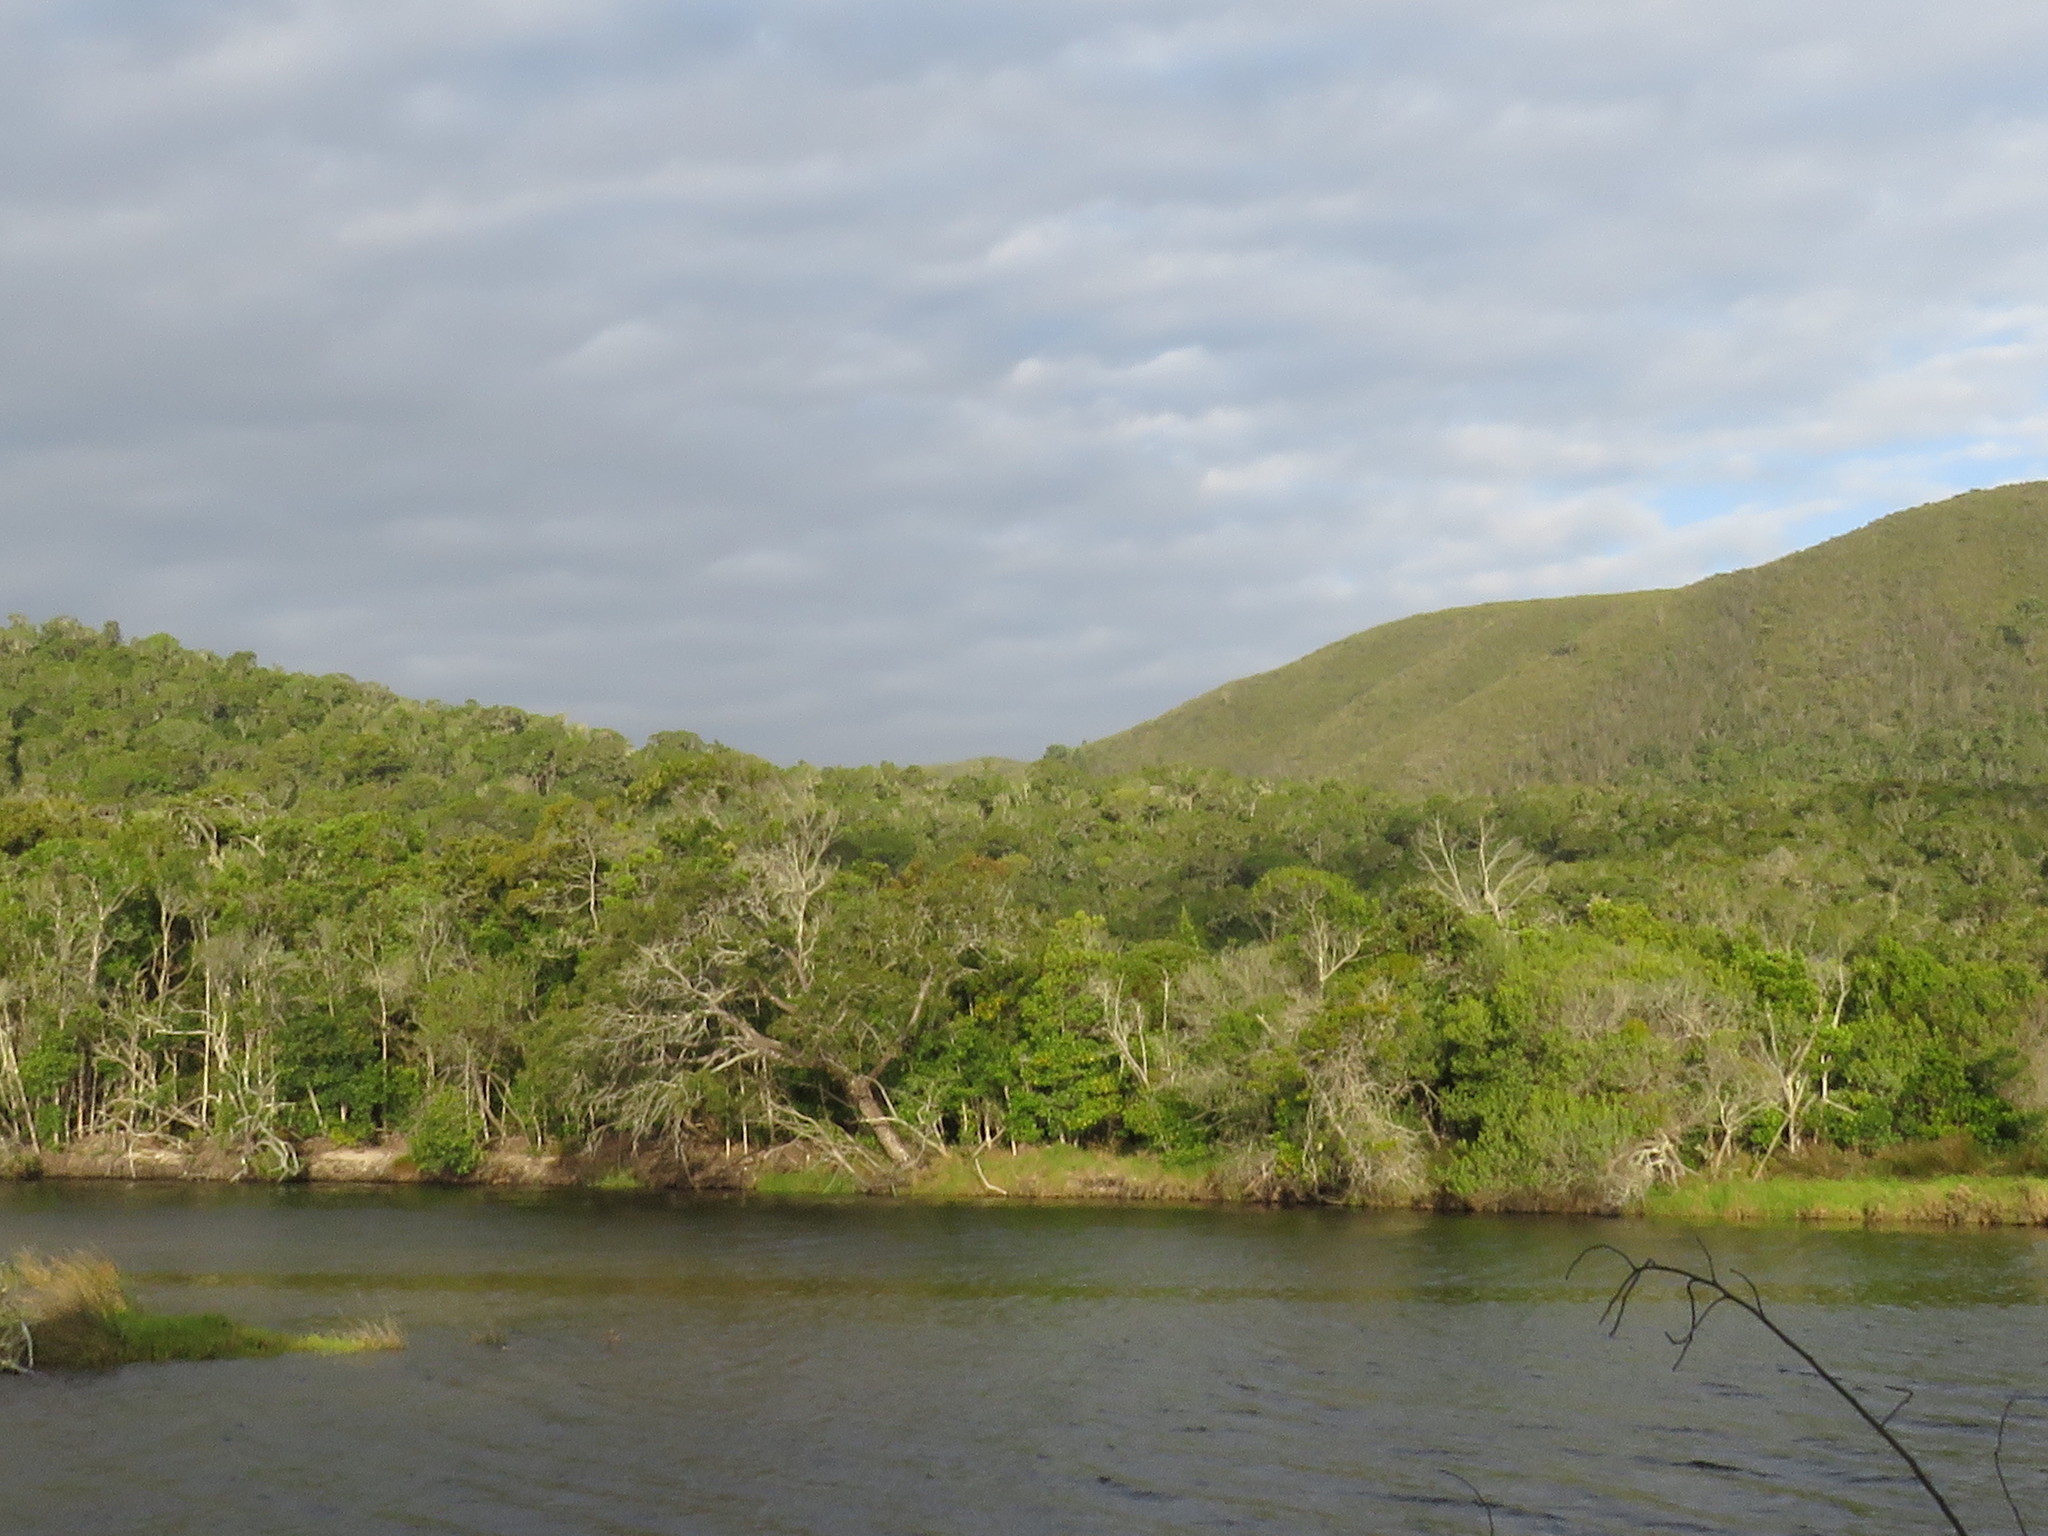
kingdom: Animalia
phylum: Chordata
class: Aves
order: Passeriformes
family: Dicruridae
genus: Dicrurus
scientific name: Dicrurus adsimilis
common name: Fork-tailed drongo
